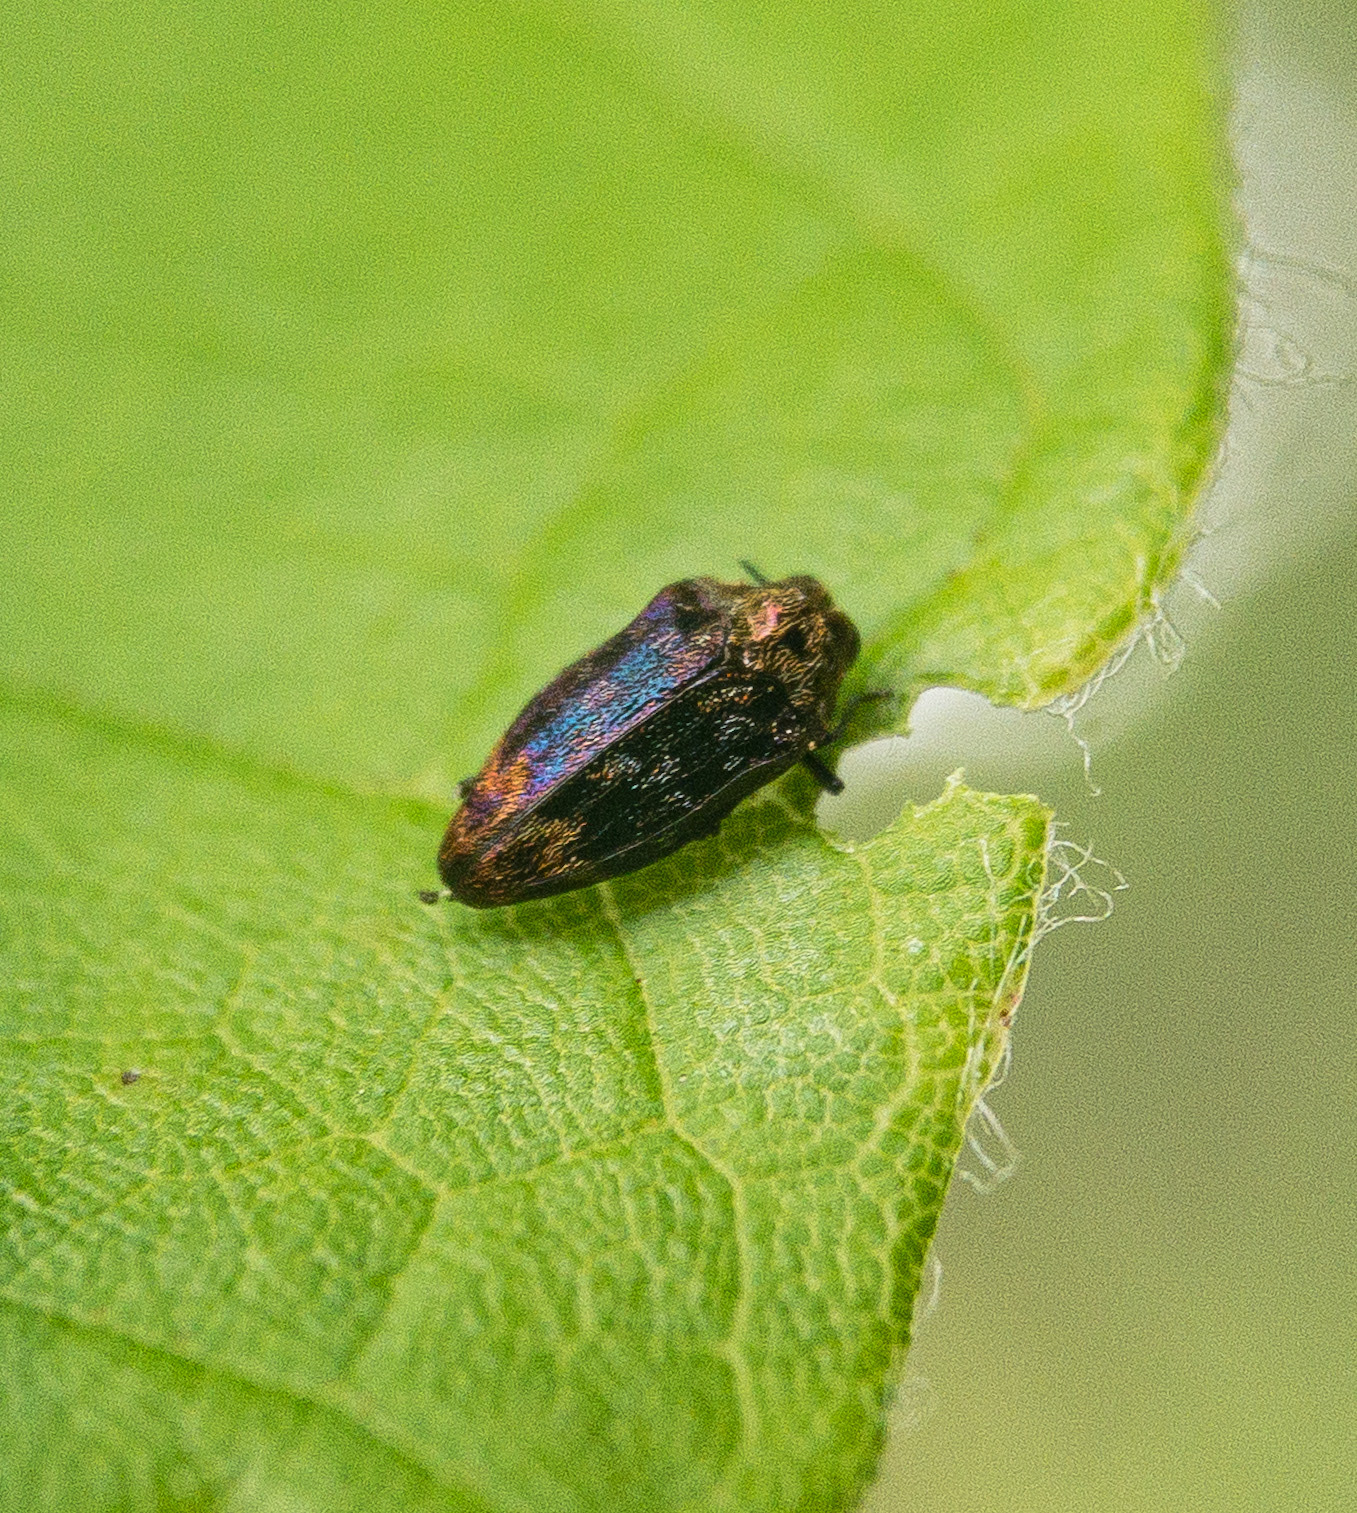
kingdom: Animalia
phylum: Arthropoda
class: Insecta
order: Coleoptera
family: Buprestidae
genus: Brachys
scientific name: Brachys aerosus
